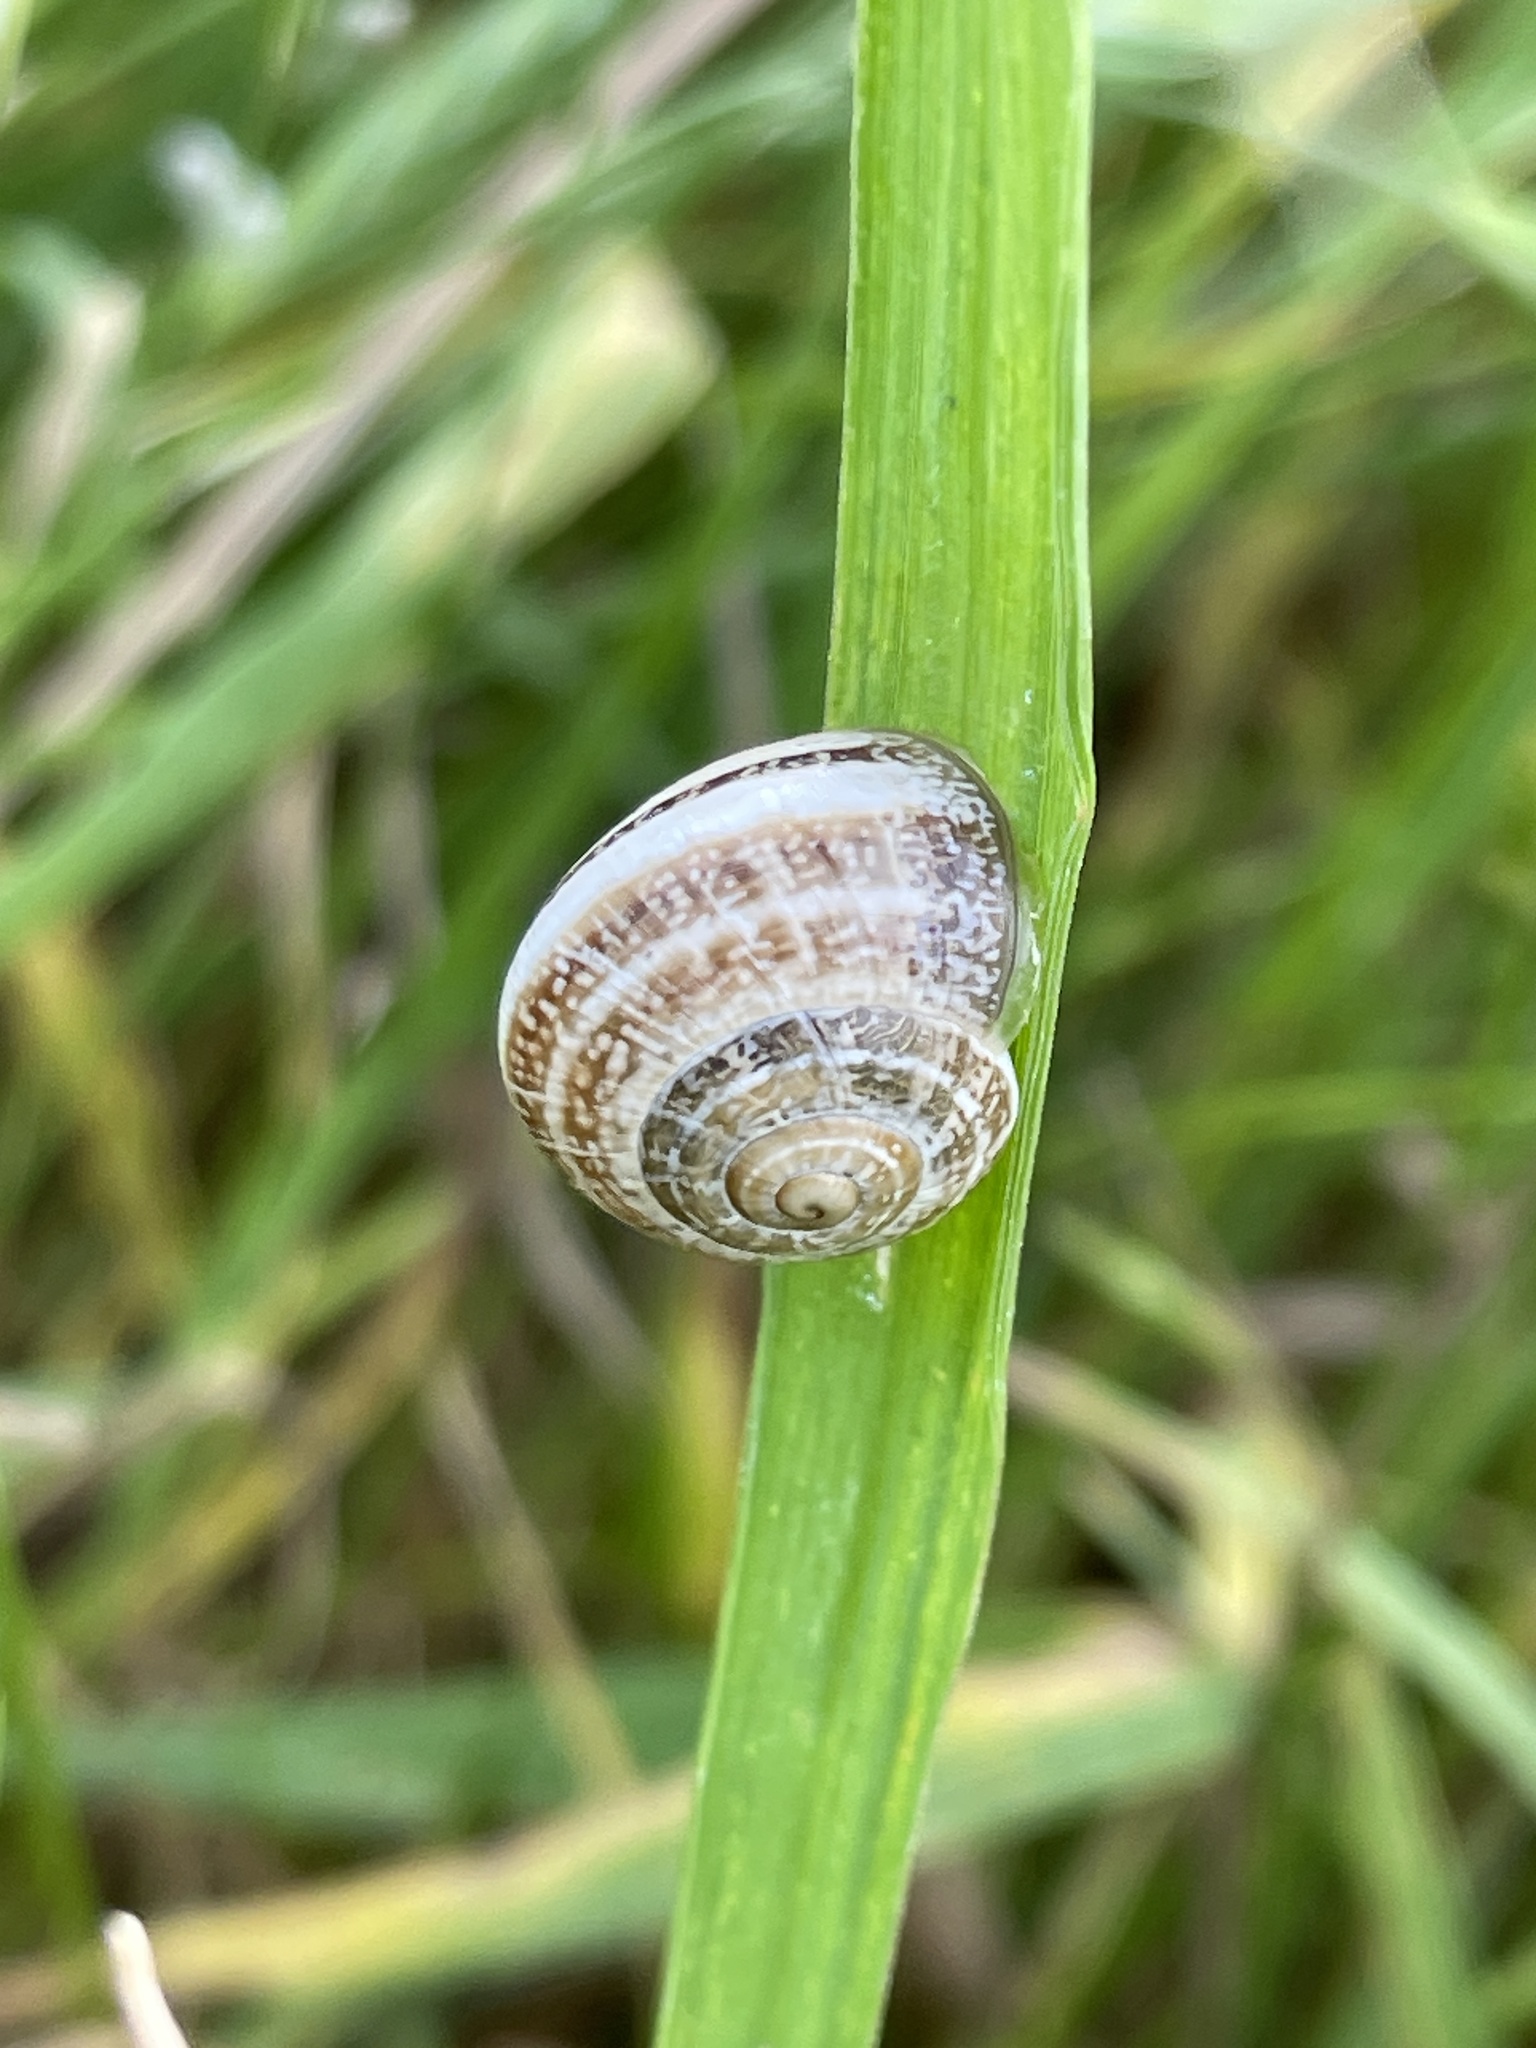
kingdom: Animalia
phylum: Mollusca
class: Gastropoda
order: Stylommatophora
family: Helicidae
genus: Otala
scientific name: Otala lactea
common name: Milk snail
